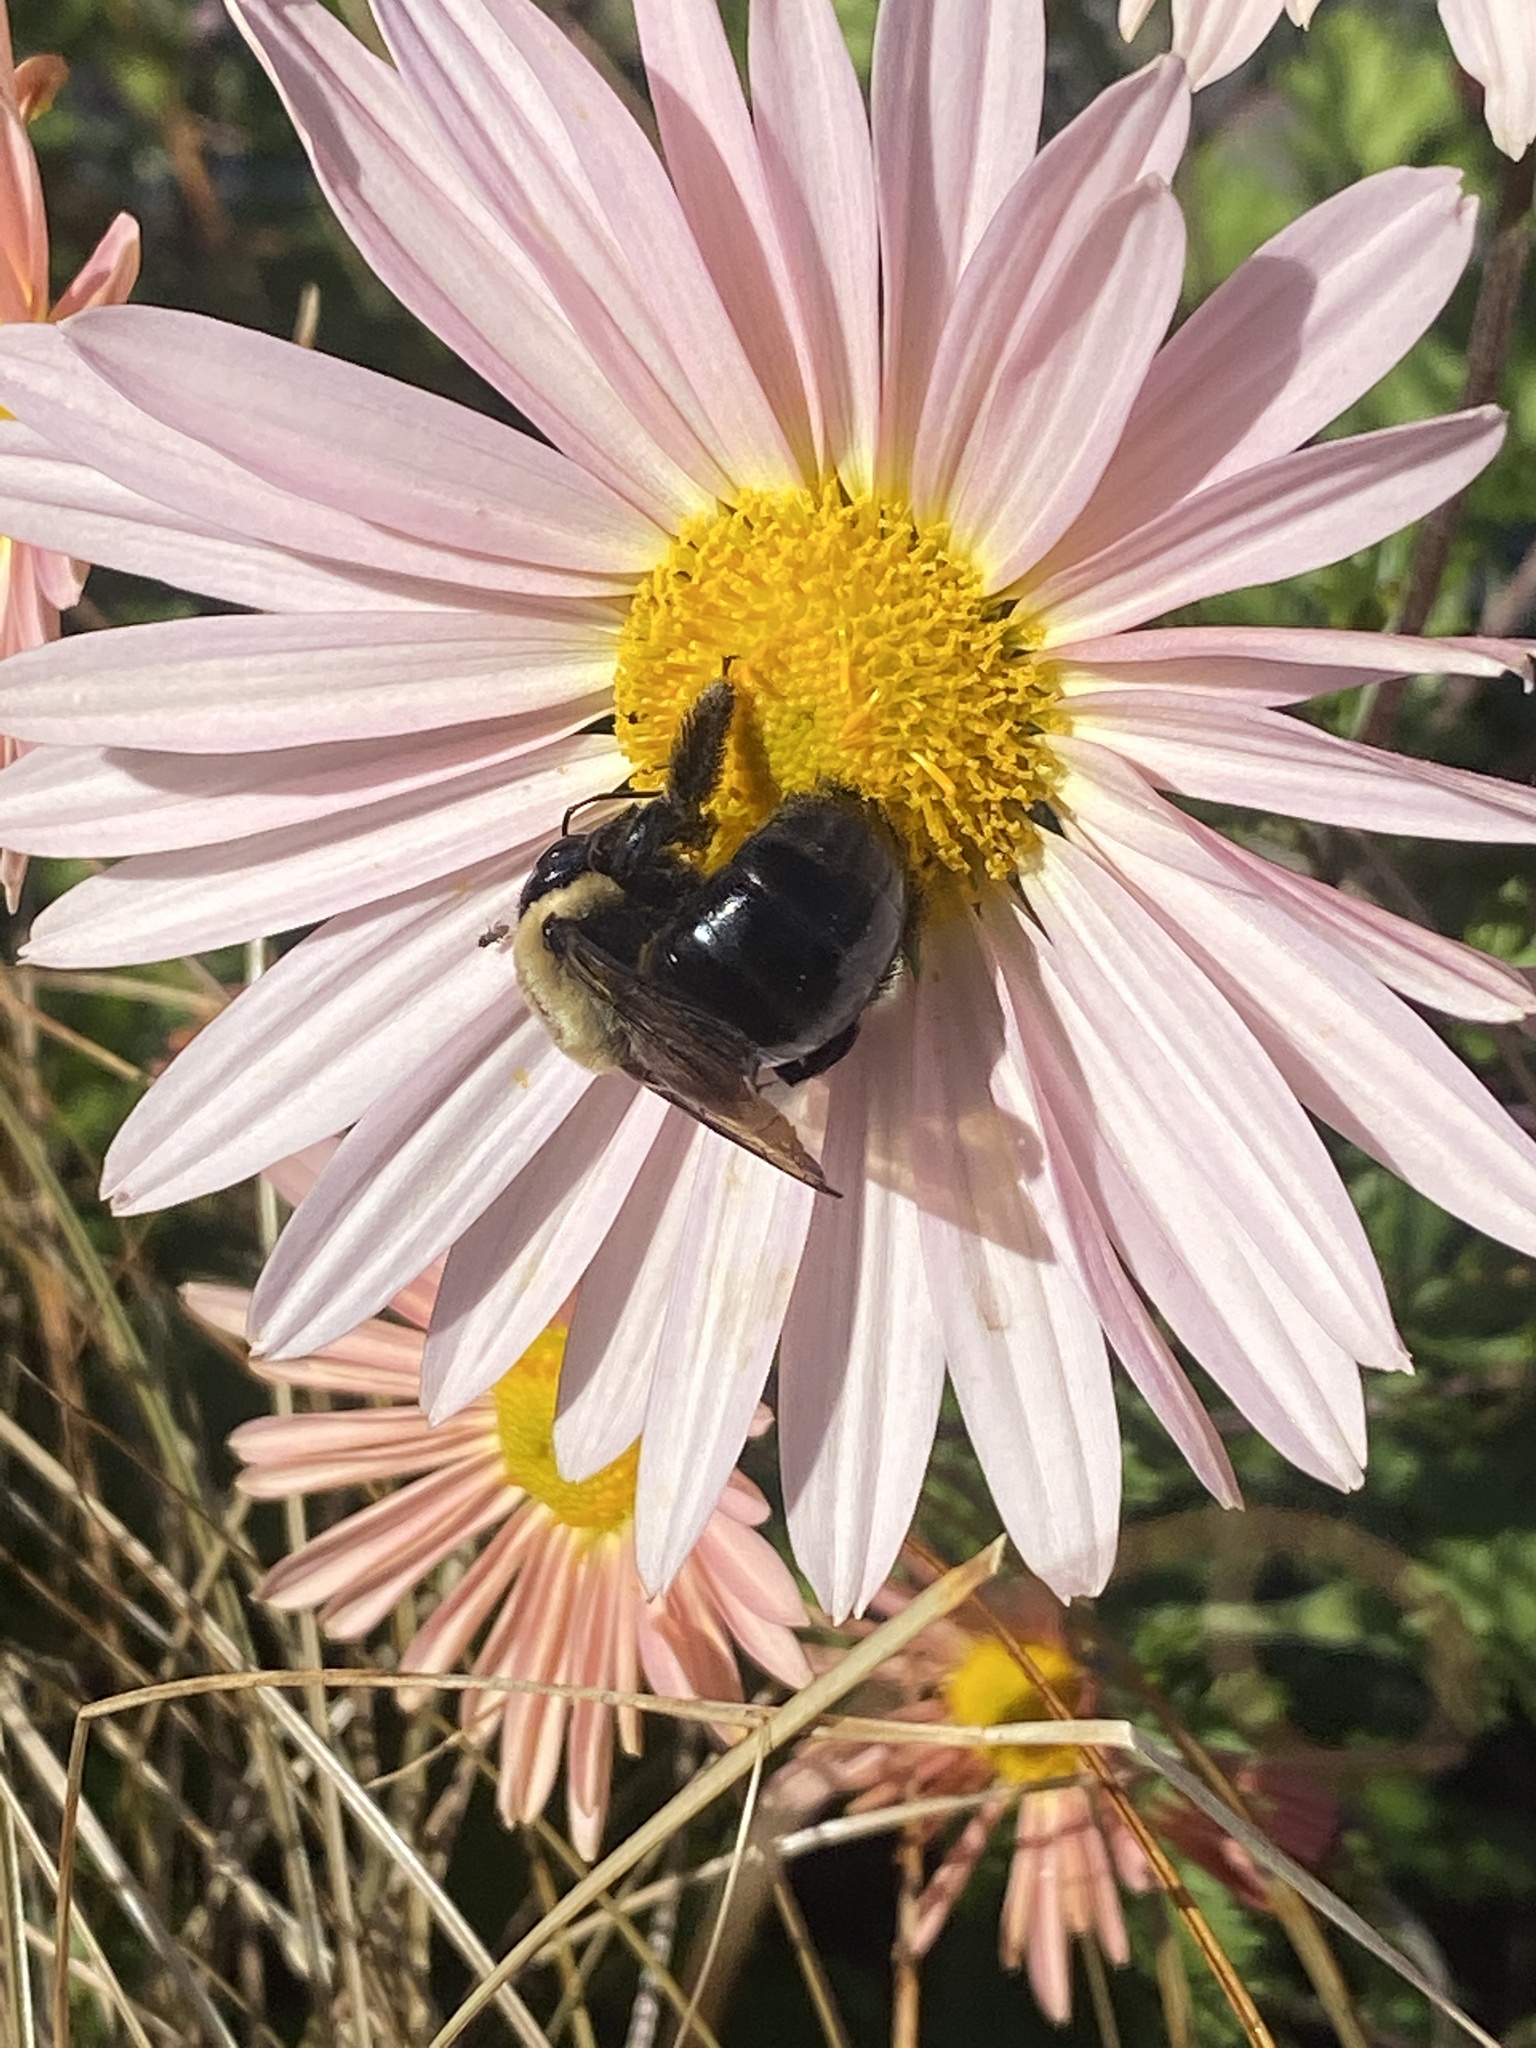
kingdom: Animalia
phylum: Arthropoda
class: Insecta
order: Hymenoptera
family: Apidae
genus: Xylocopa
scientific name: Xylocopa virginica
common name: Carpenter bee
